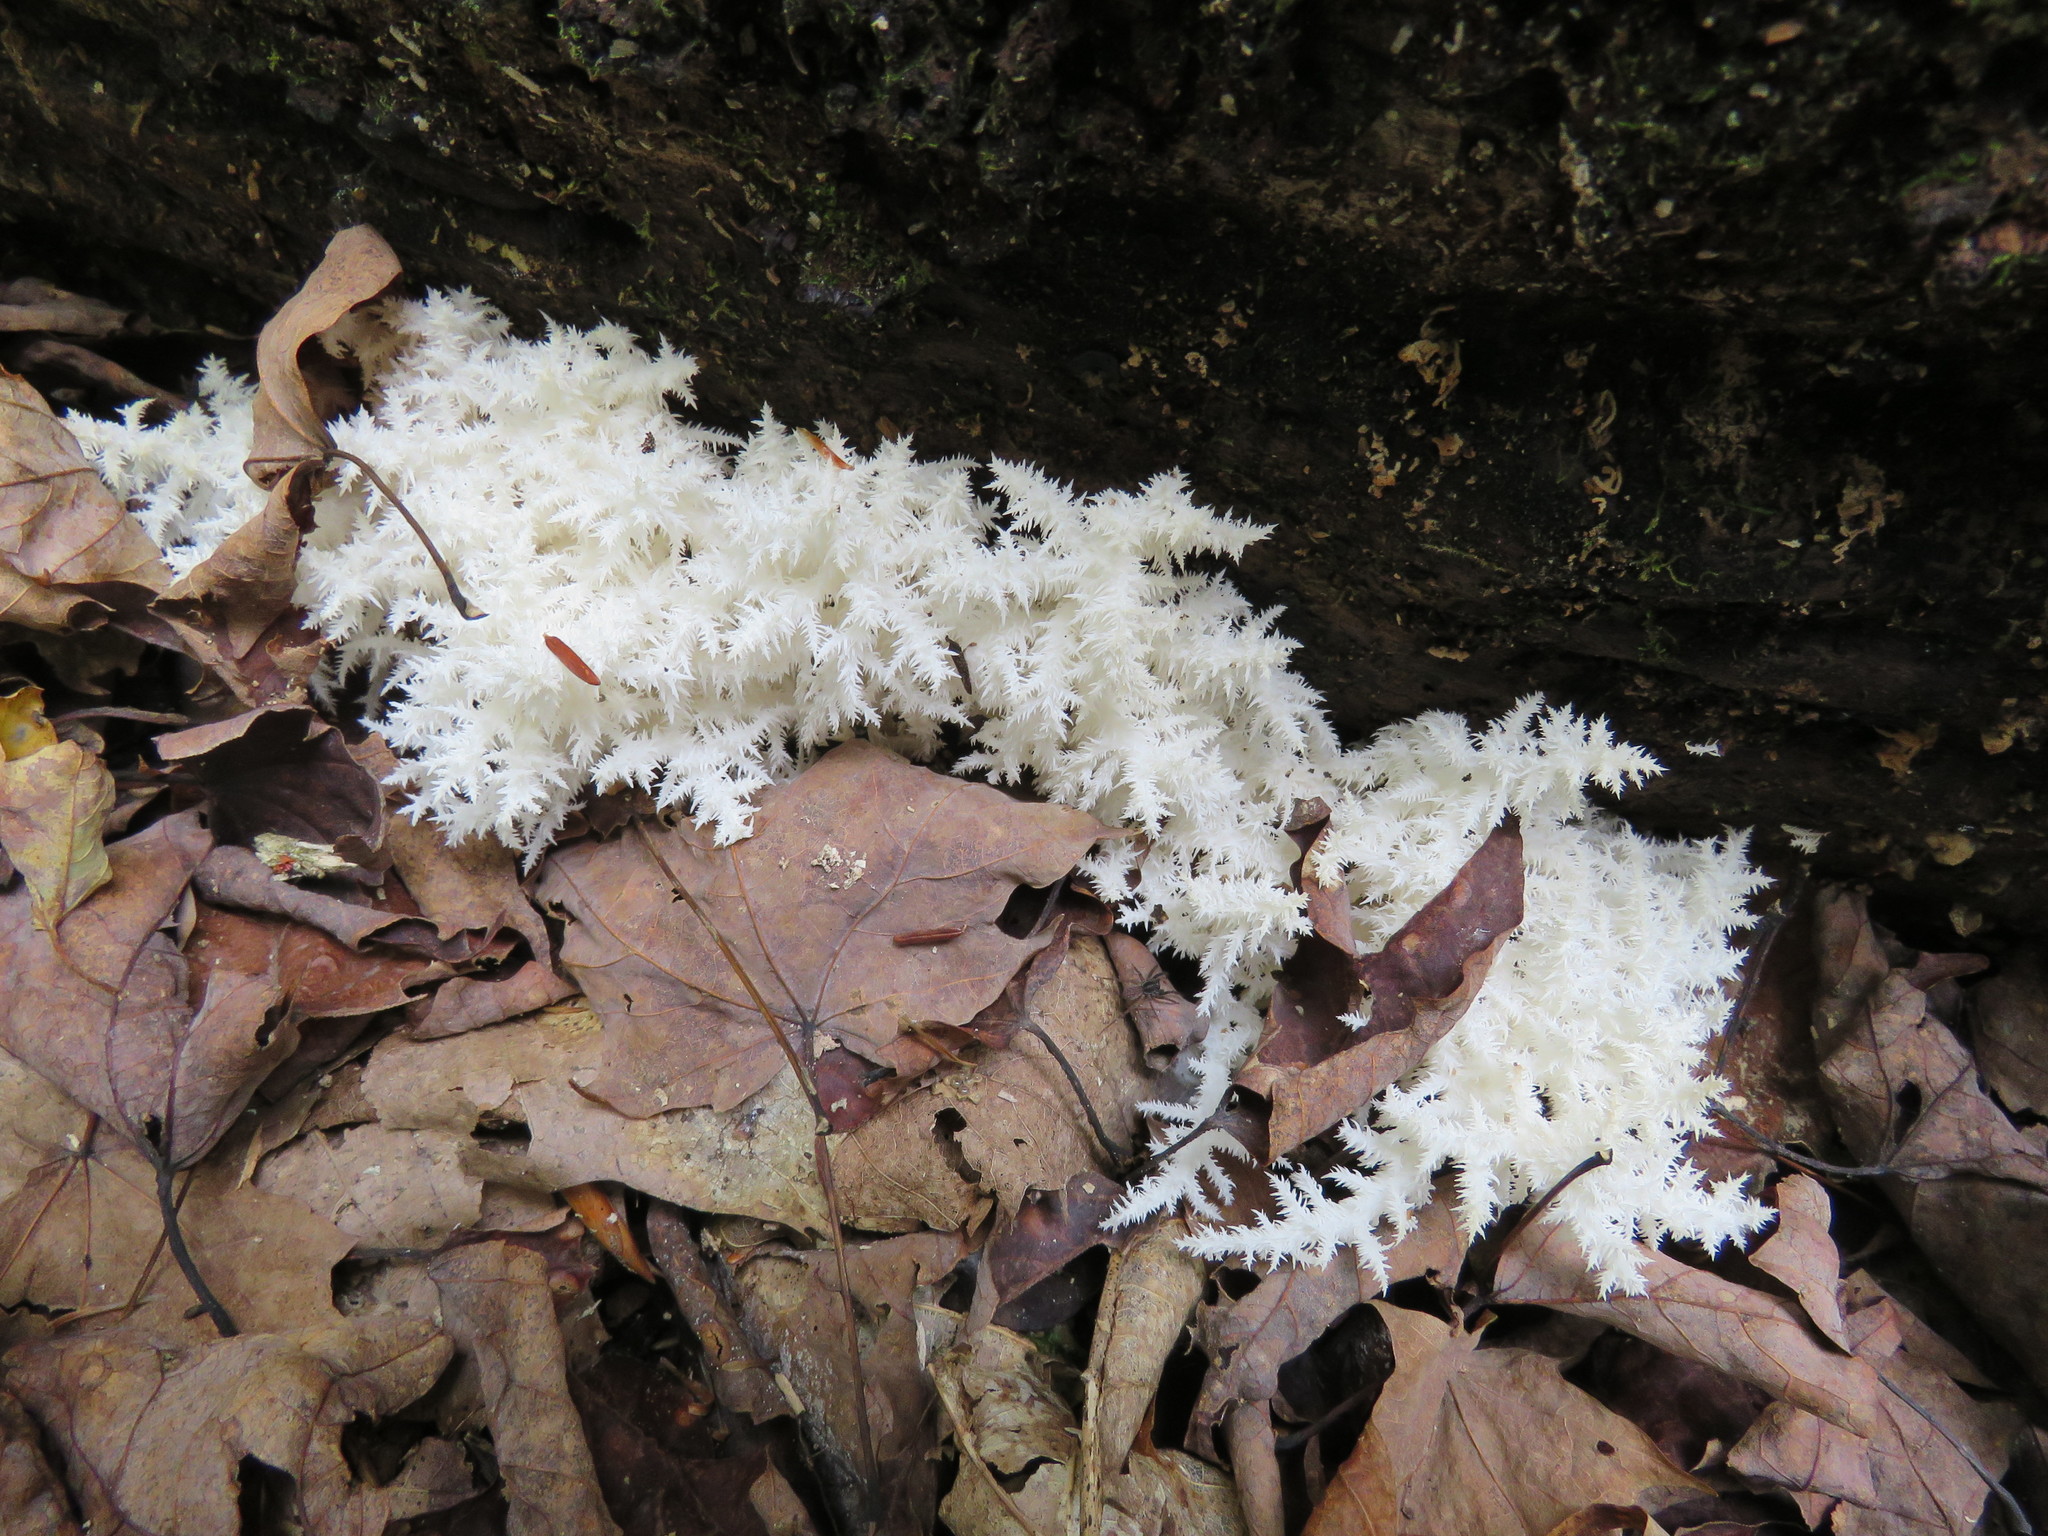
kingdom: Fungi
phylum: Basidiomycota
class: Agaricomycetes
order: Russulales
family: Hericiaceae
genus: Hericium
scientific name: Hericium coralloides
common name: Coral tooth
